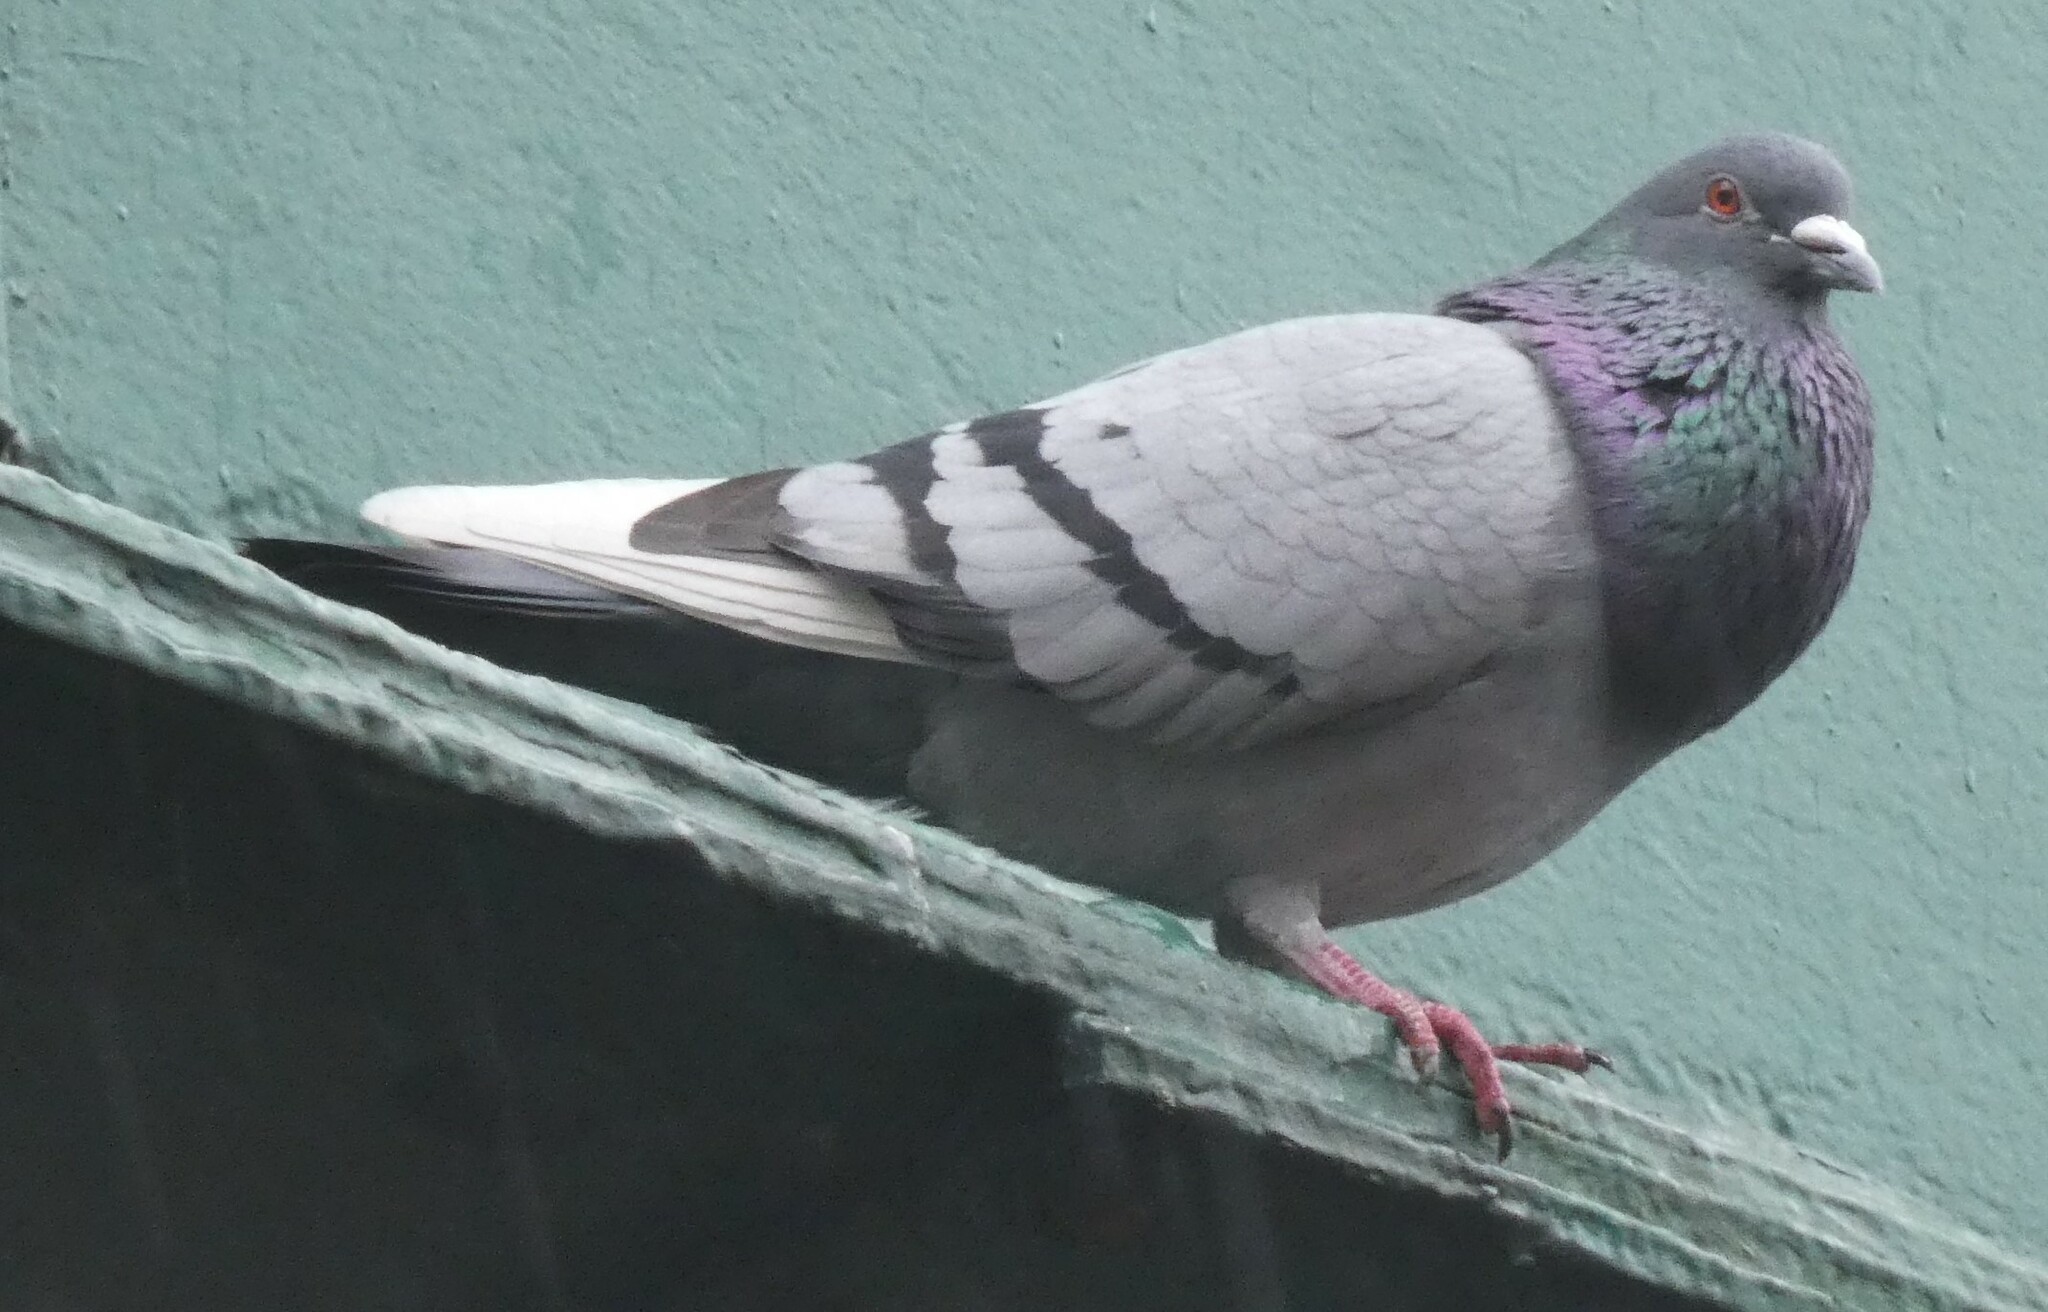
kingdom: Animalia
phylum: Chordata
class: Aves
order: Columbiformes
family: Columbidae
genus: Columba
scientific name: Columba livia
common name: Rock pigeon
